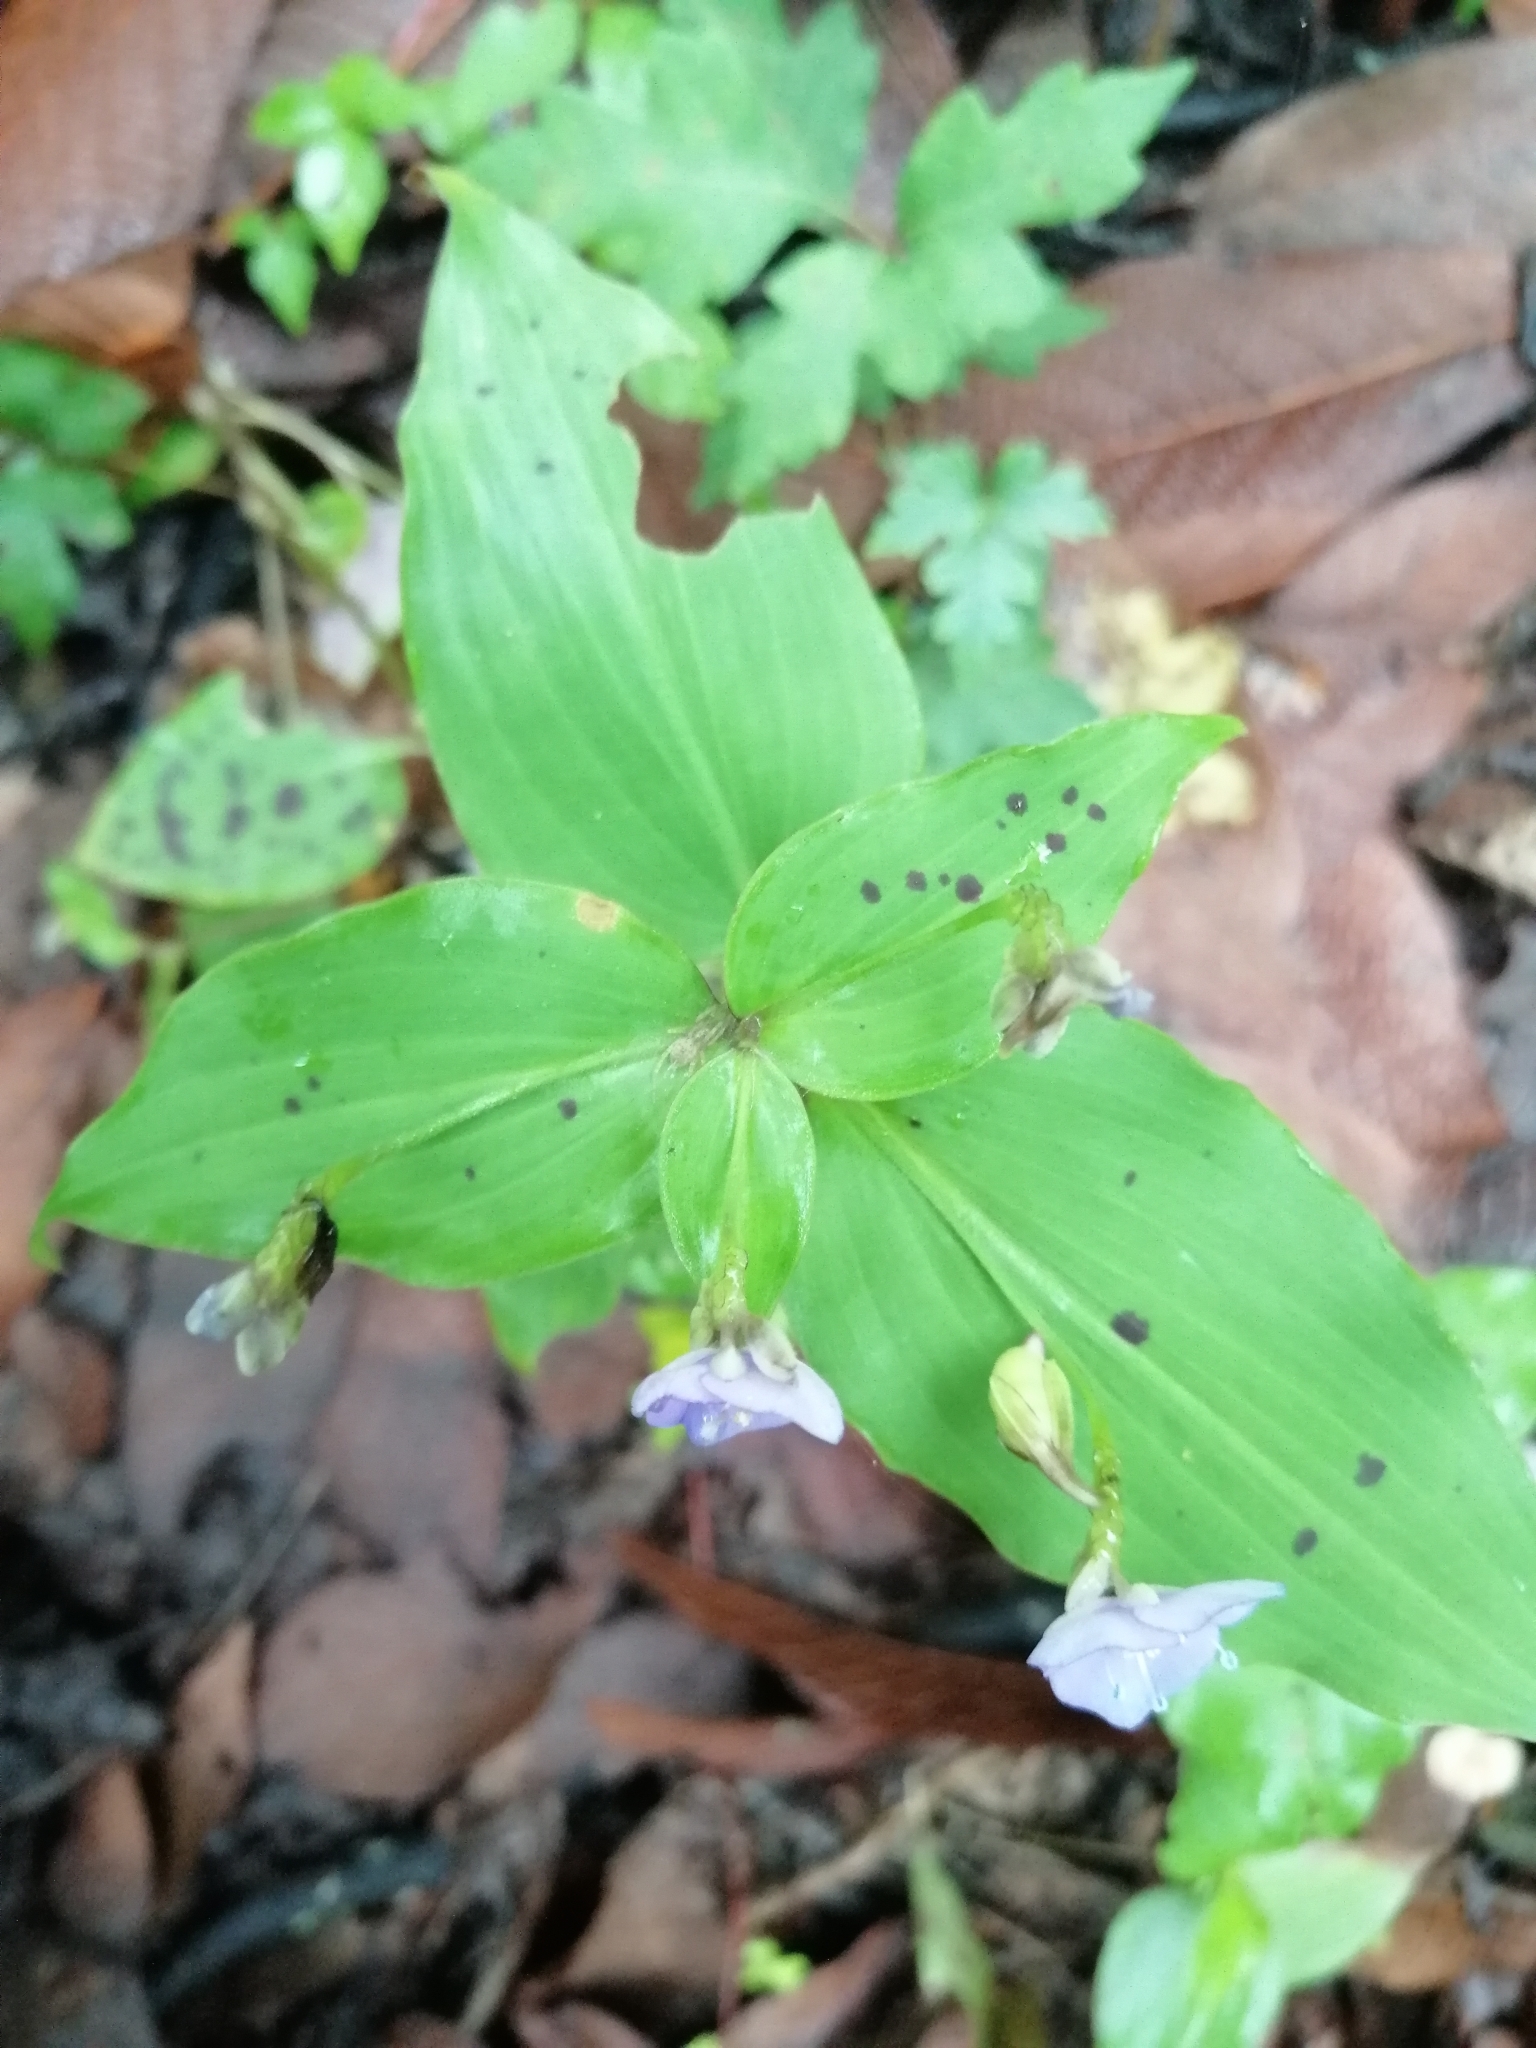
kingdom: Plantae
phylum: Tracheophyta
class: Liliopsida
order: Commelinales
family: Commelinaceae
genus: Tinantia
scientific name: Tinantia pringlei
